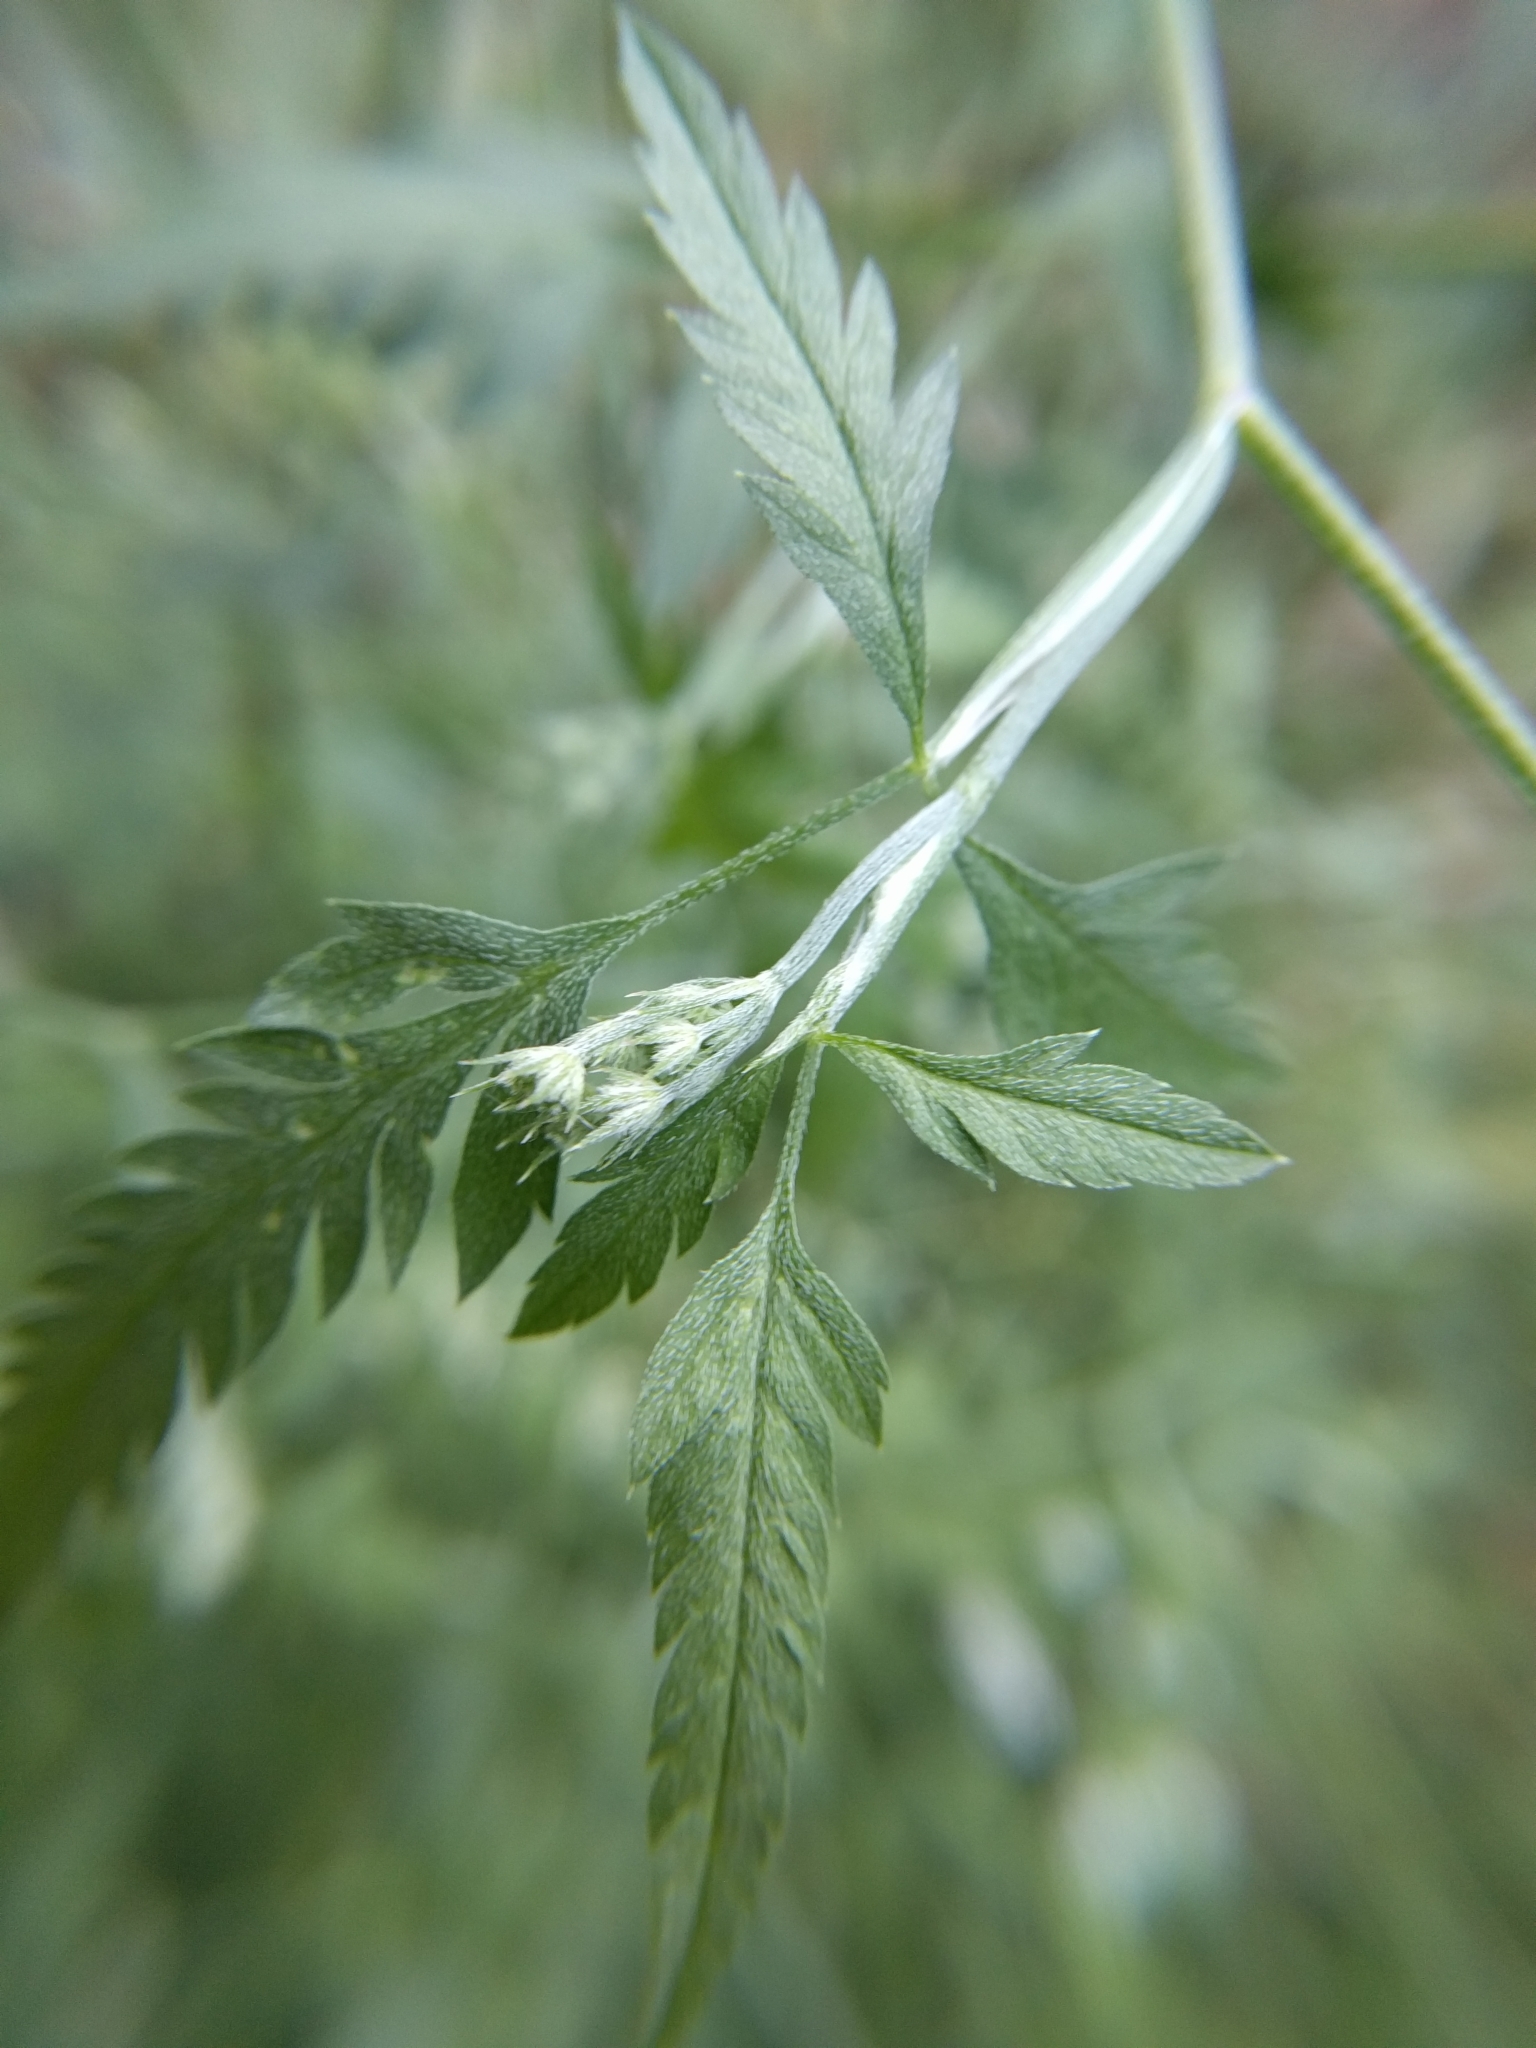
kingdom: Plantae
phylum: Tracheophyta
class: Magnoliopsida
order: Apiales
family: Apiaceae
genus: Torilis
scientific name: Torilis arvensis
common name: Spreading hedge-parsley
